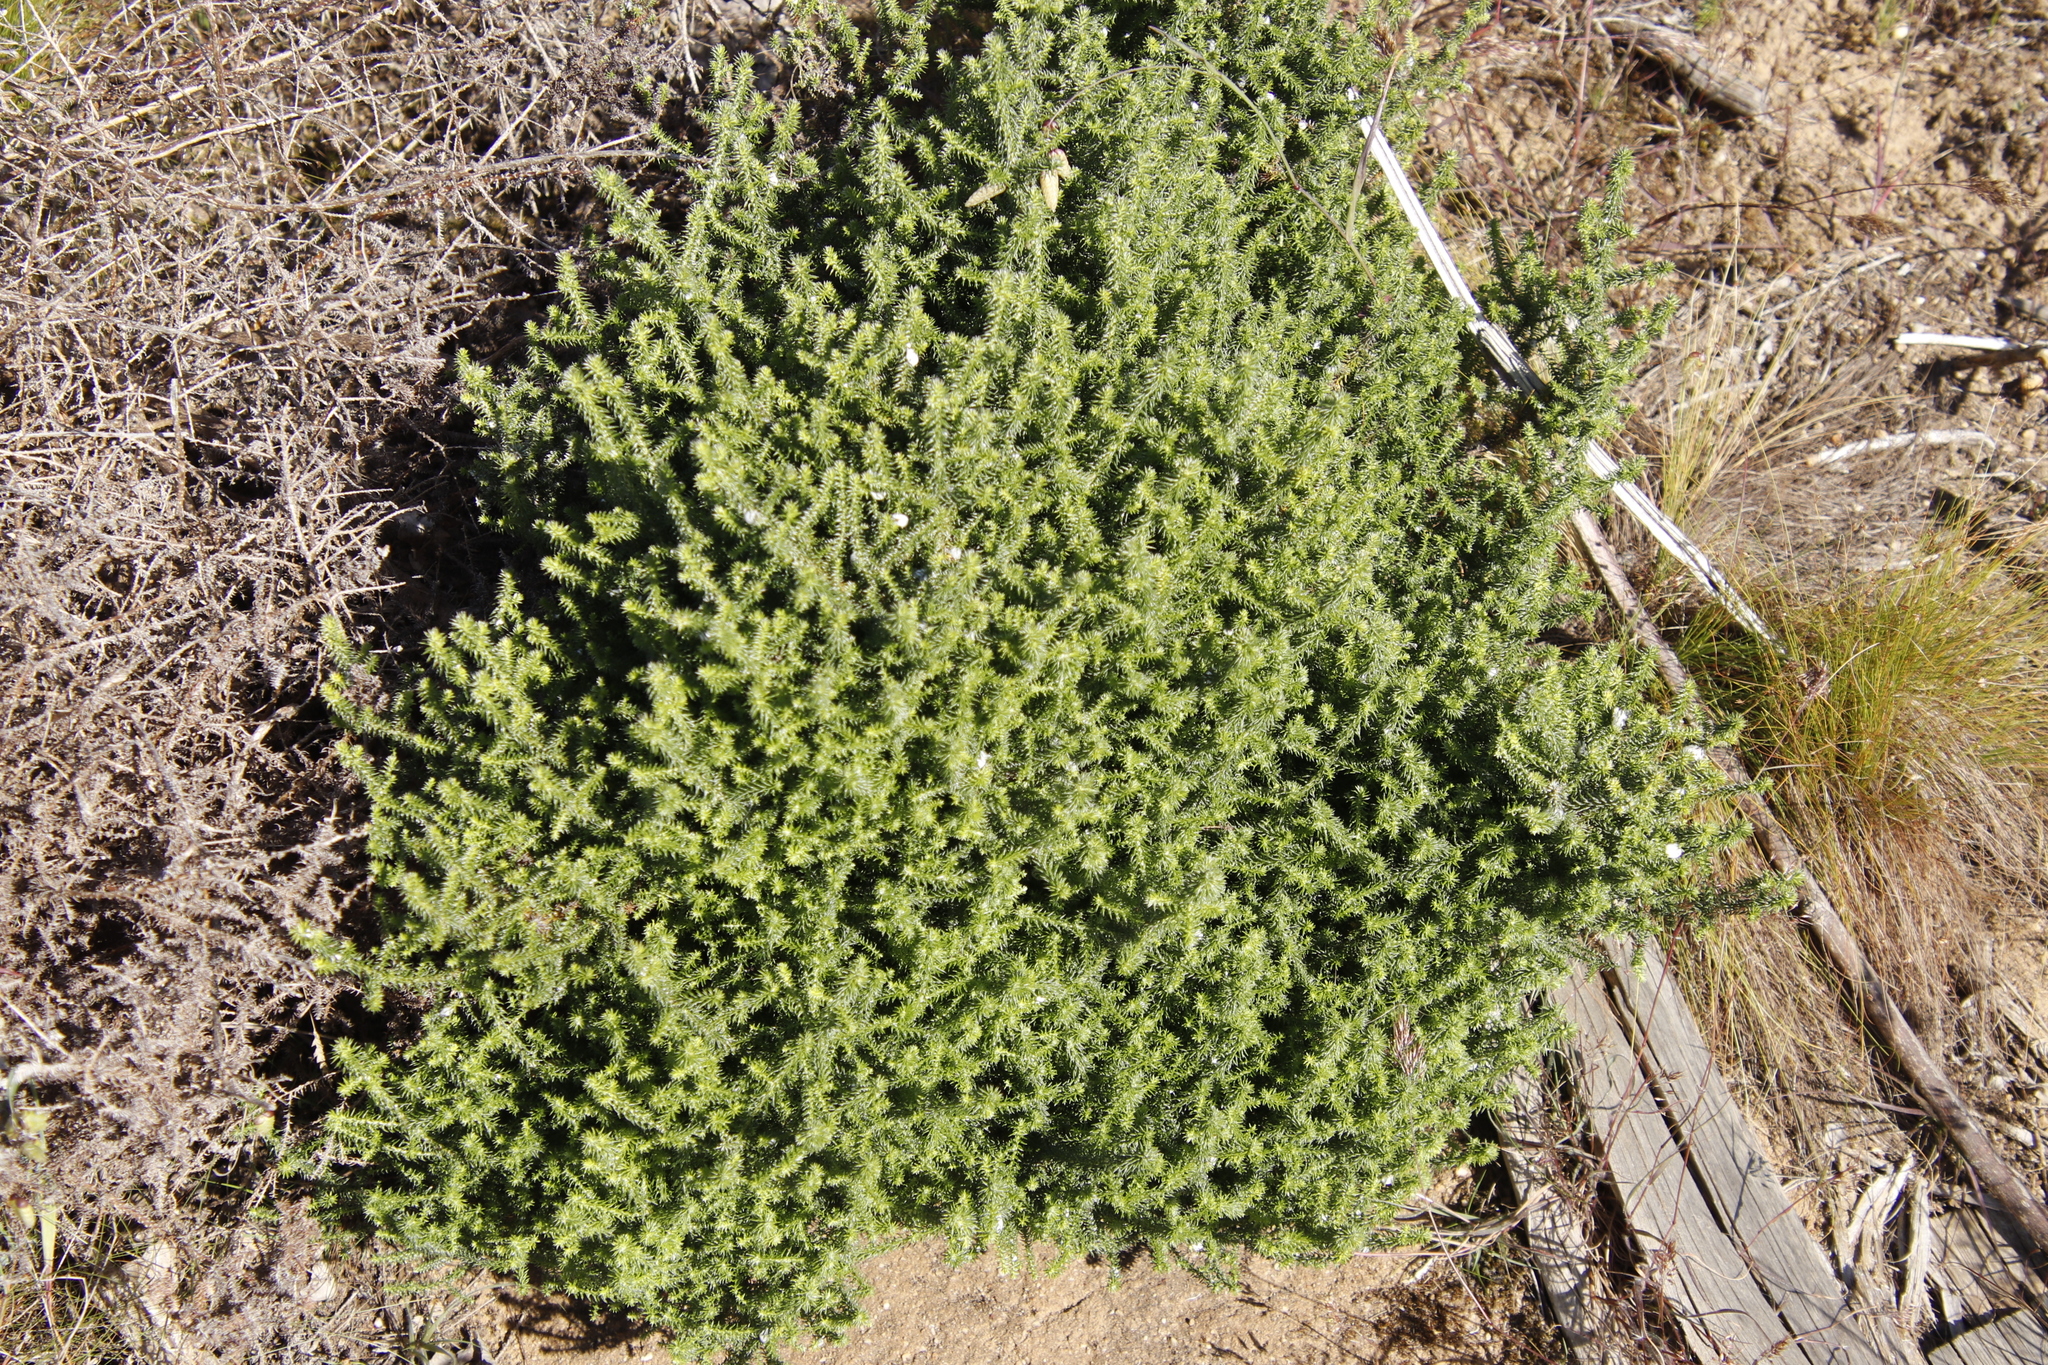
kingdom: Plantae
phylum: Tracheophyta
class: Magnoliopsida
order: Asterales
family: Asteraceae
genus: Seriphium
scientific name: Seriphium cinereum
